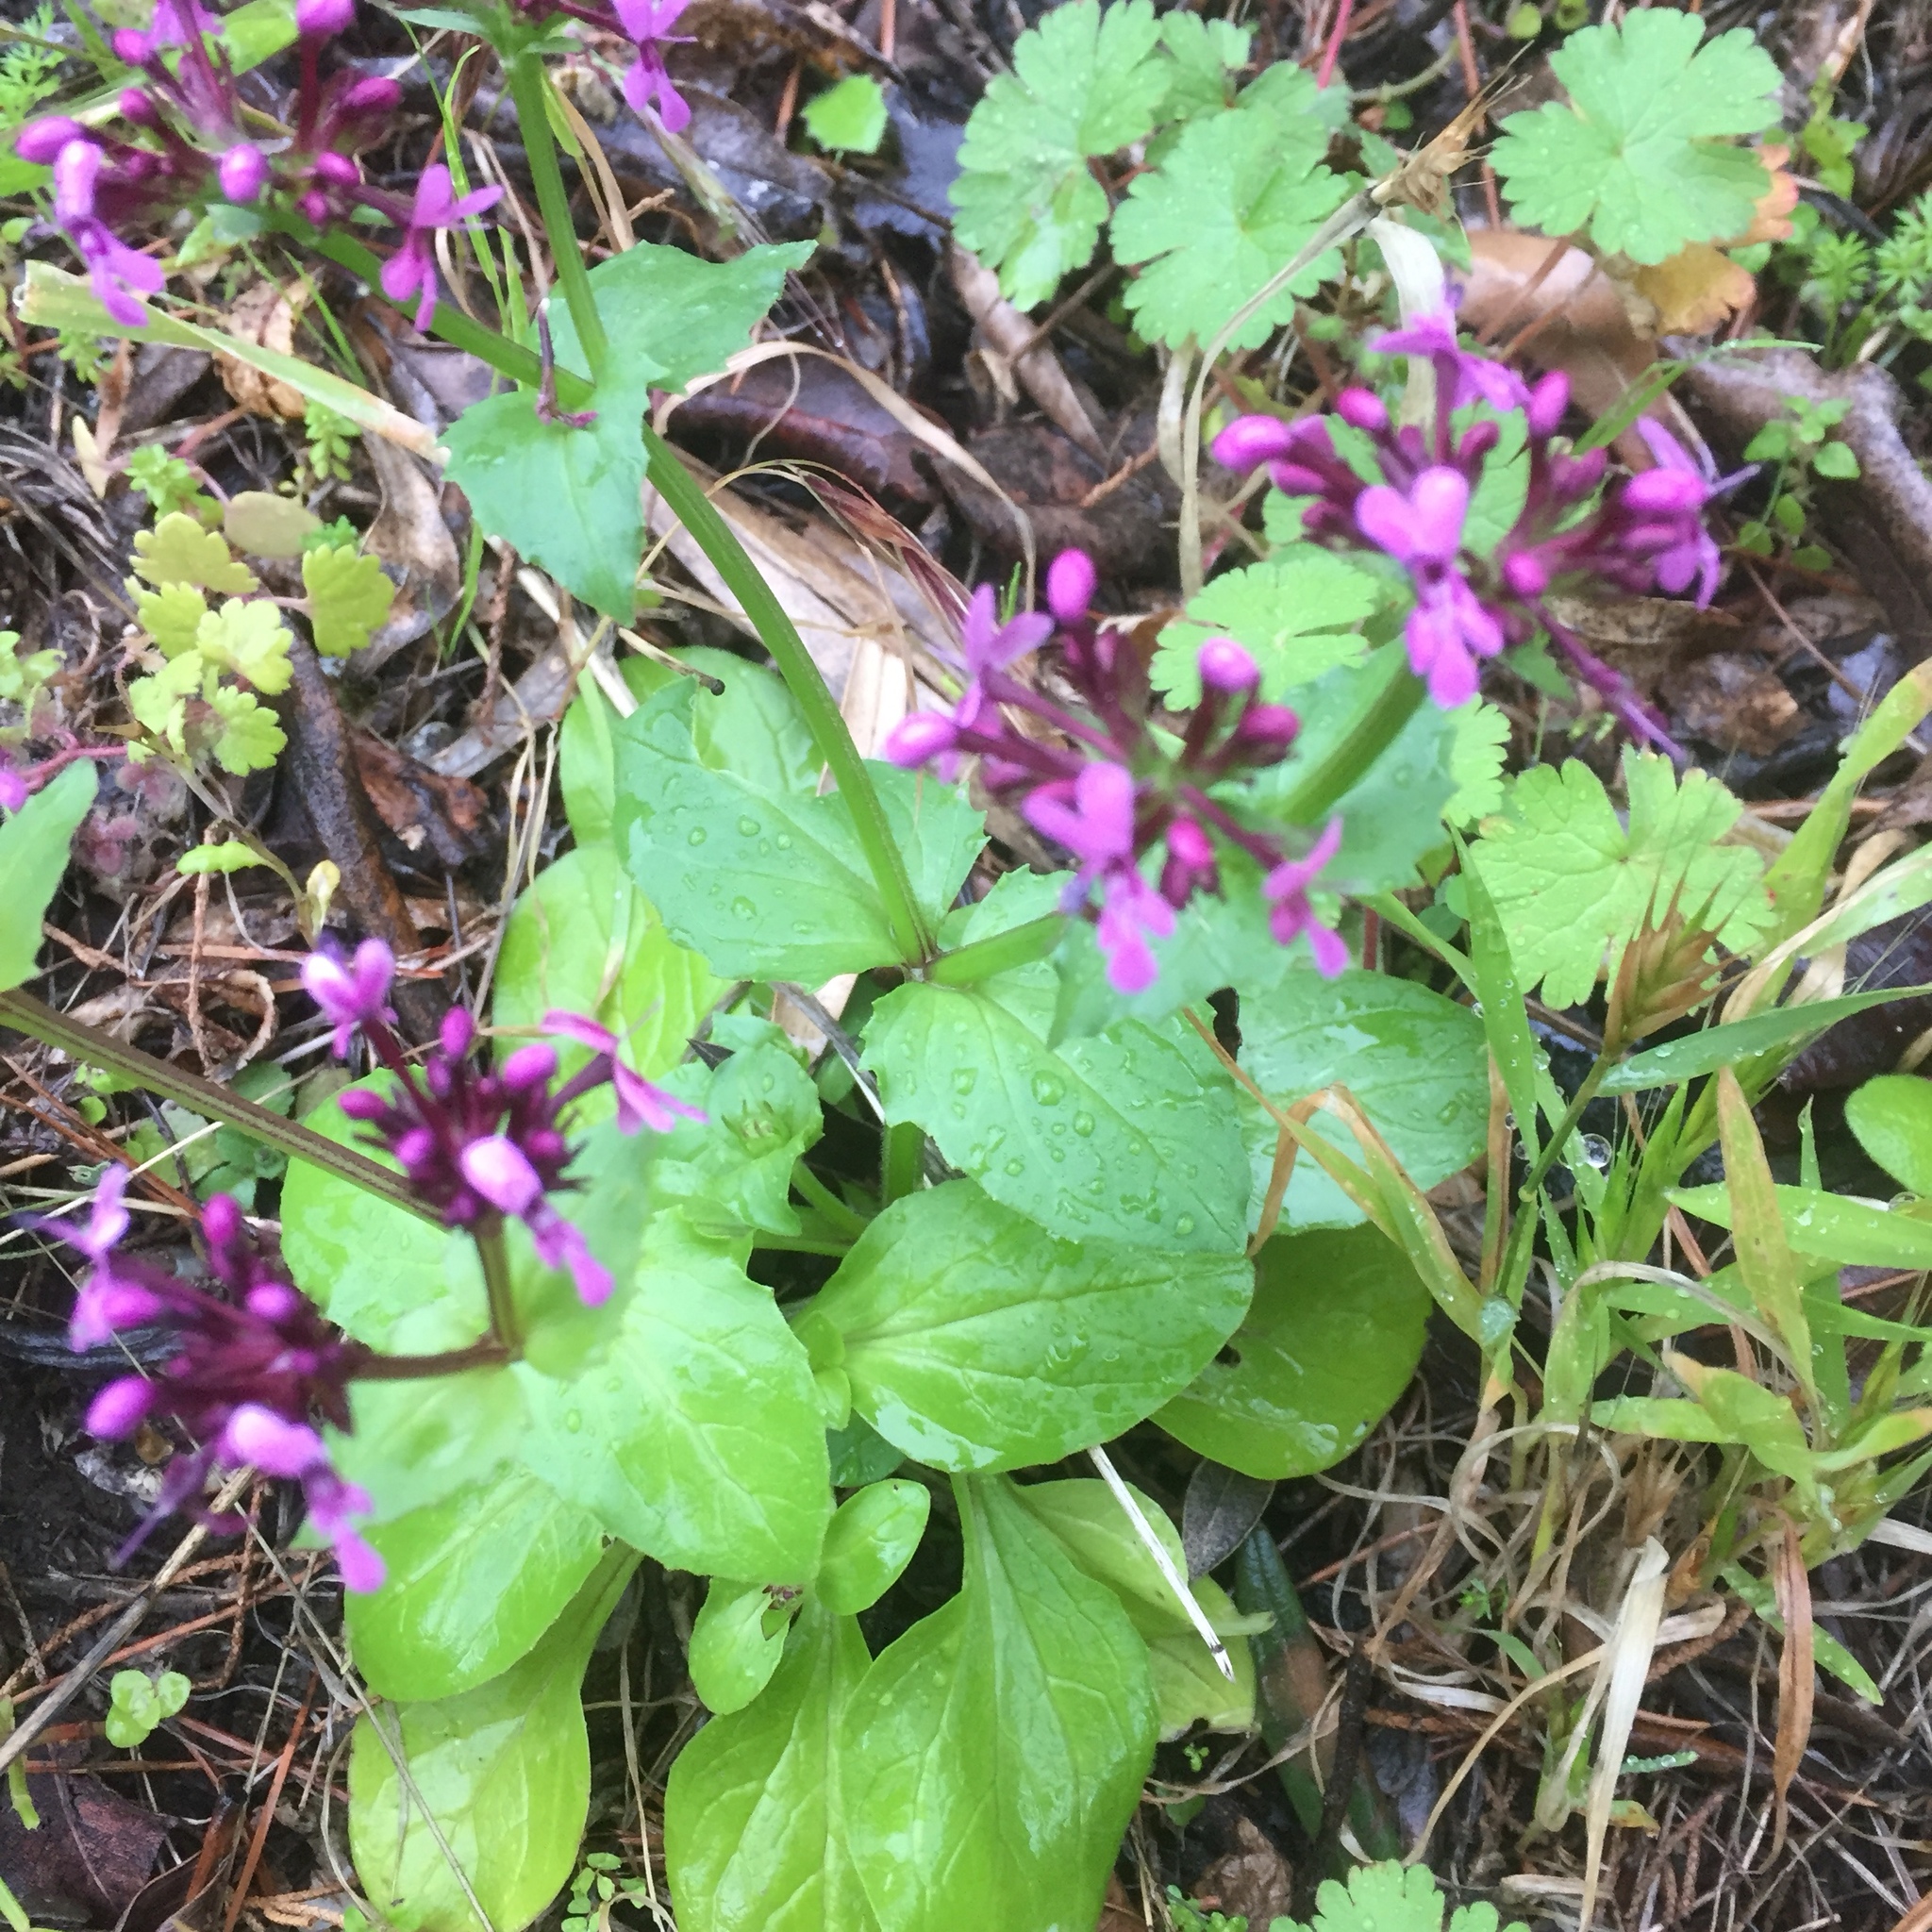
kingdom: Plantae
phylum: Tracheophyta
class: Magnoliopsida
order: Dipsacales
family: Caprifoliaceae
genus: Fedia
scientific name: Fedia graciliflora
